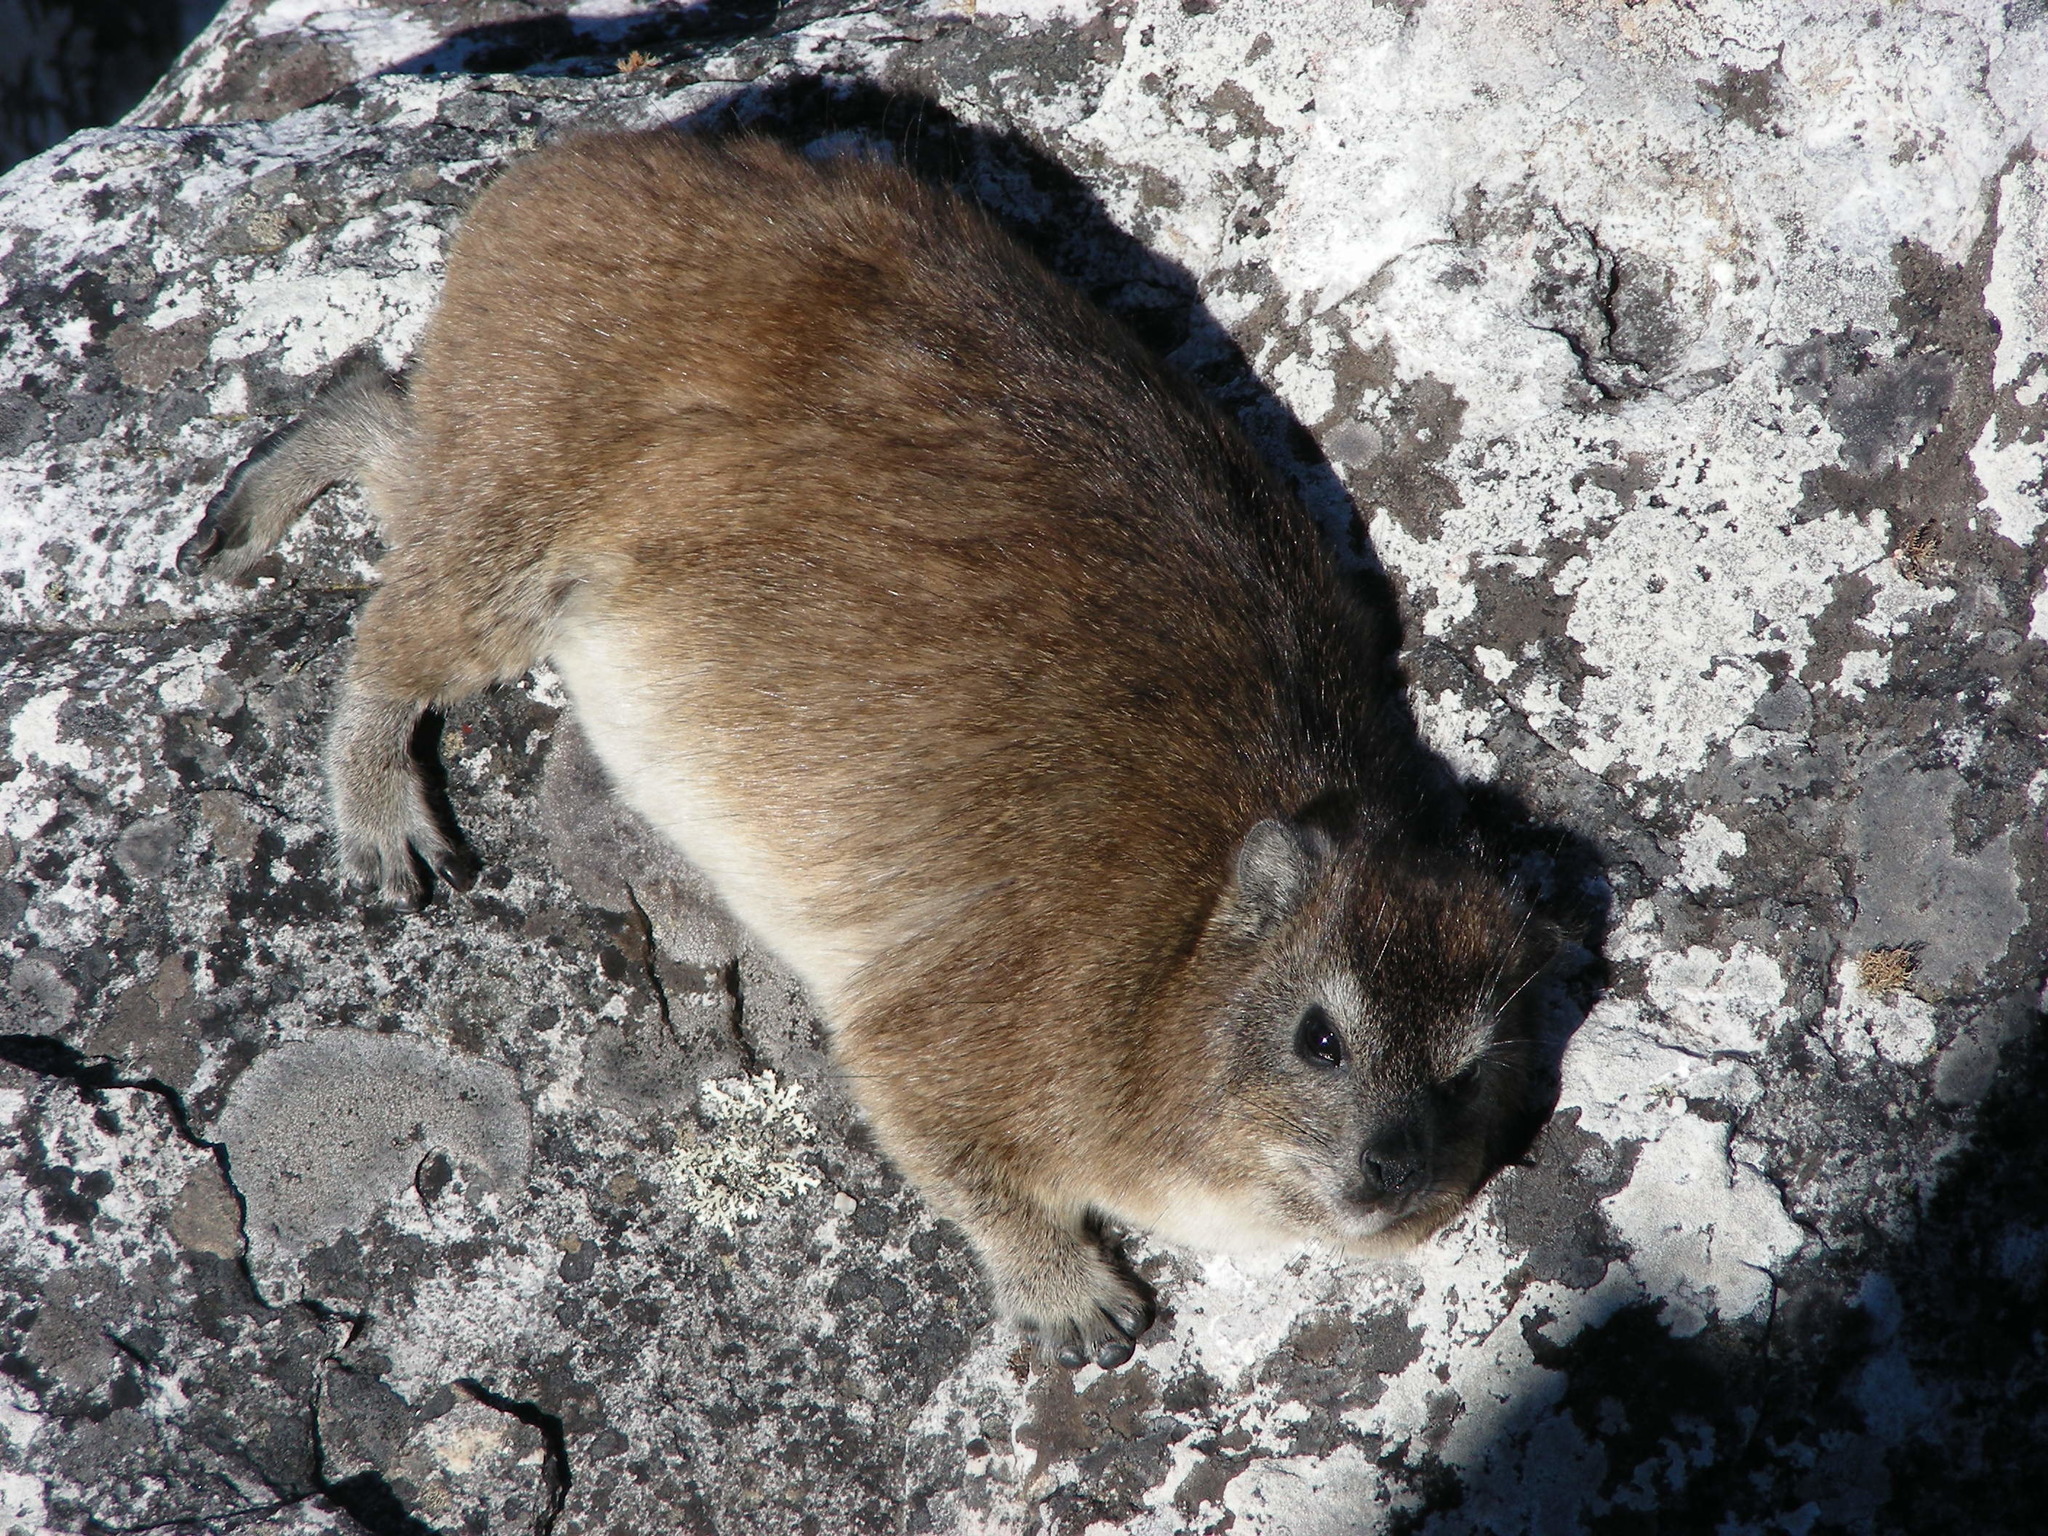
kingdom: Animalia
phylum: Chordata
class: Mammalia
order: Hyracoidea
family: Procaviidae
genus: Procavia
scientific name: Procavia capensis
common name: Rock hyrax
